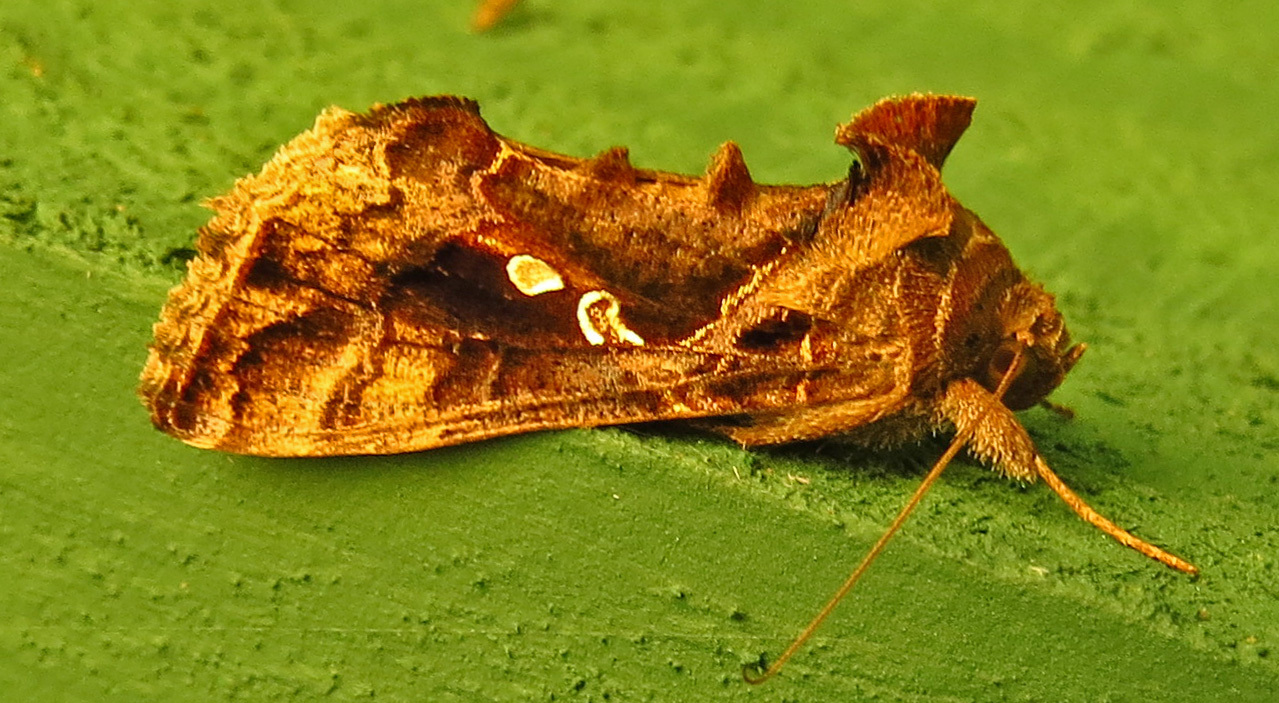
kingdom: Animalia
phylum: Arthropoda
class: Insecta
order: Lepidoptera
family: Noctuidae
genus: Chrysodeixis
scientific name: Chrysodeixis includens
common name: Cutworm moth
